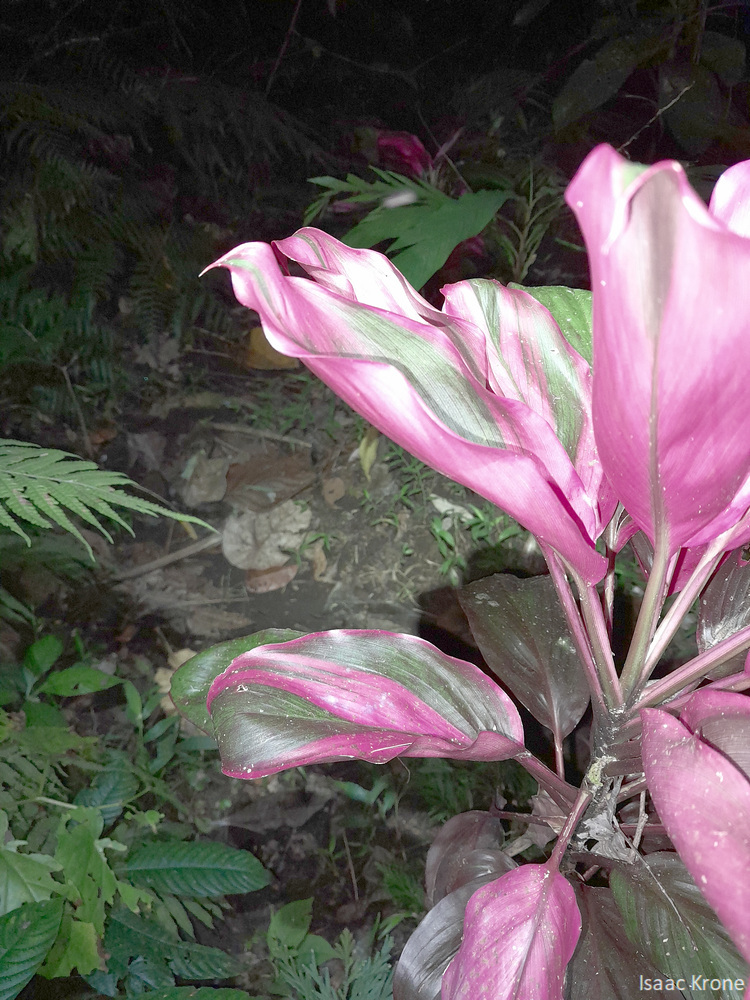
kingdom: Plantae
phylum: Tracheophyta
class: Liliopsida
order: Asparagales
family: Asparagaceae
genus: Cordyline
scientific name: Cordyline fruticosa
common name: Good-luck-plant
